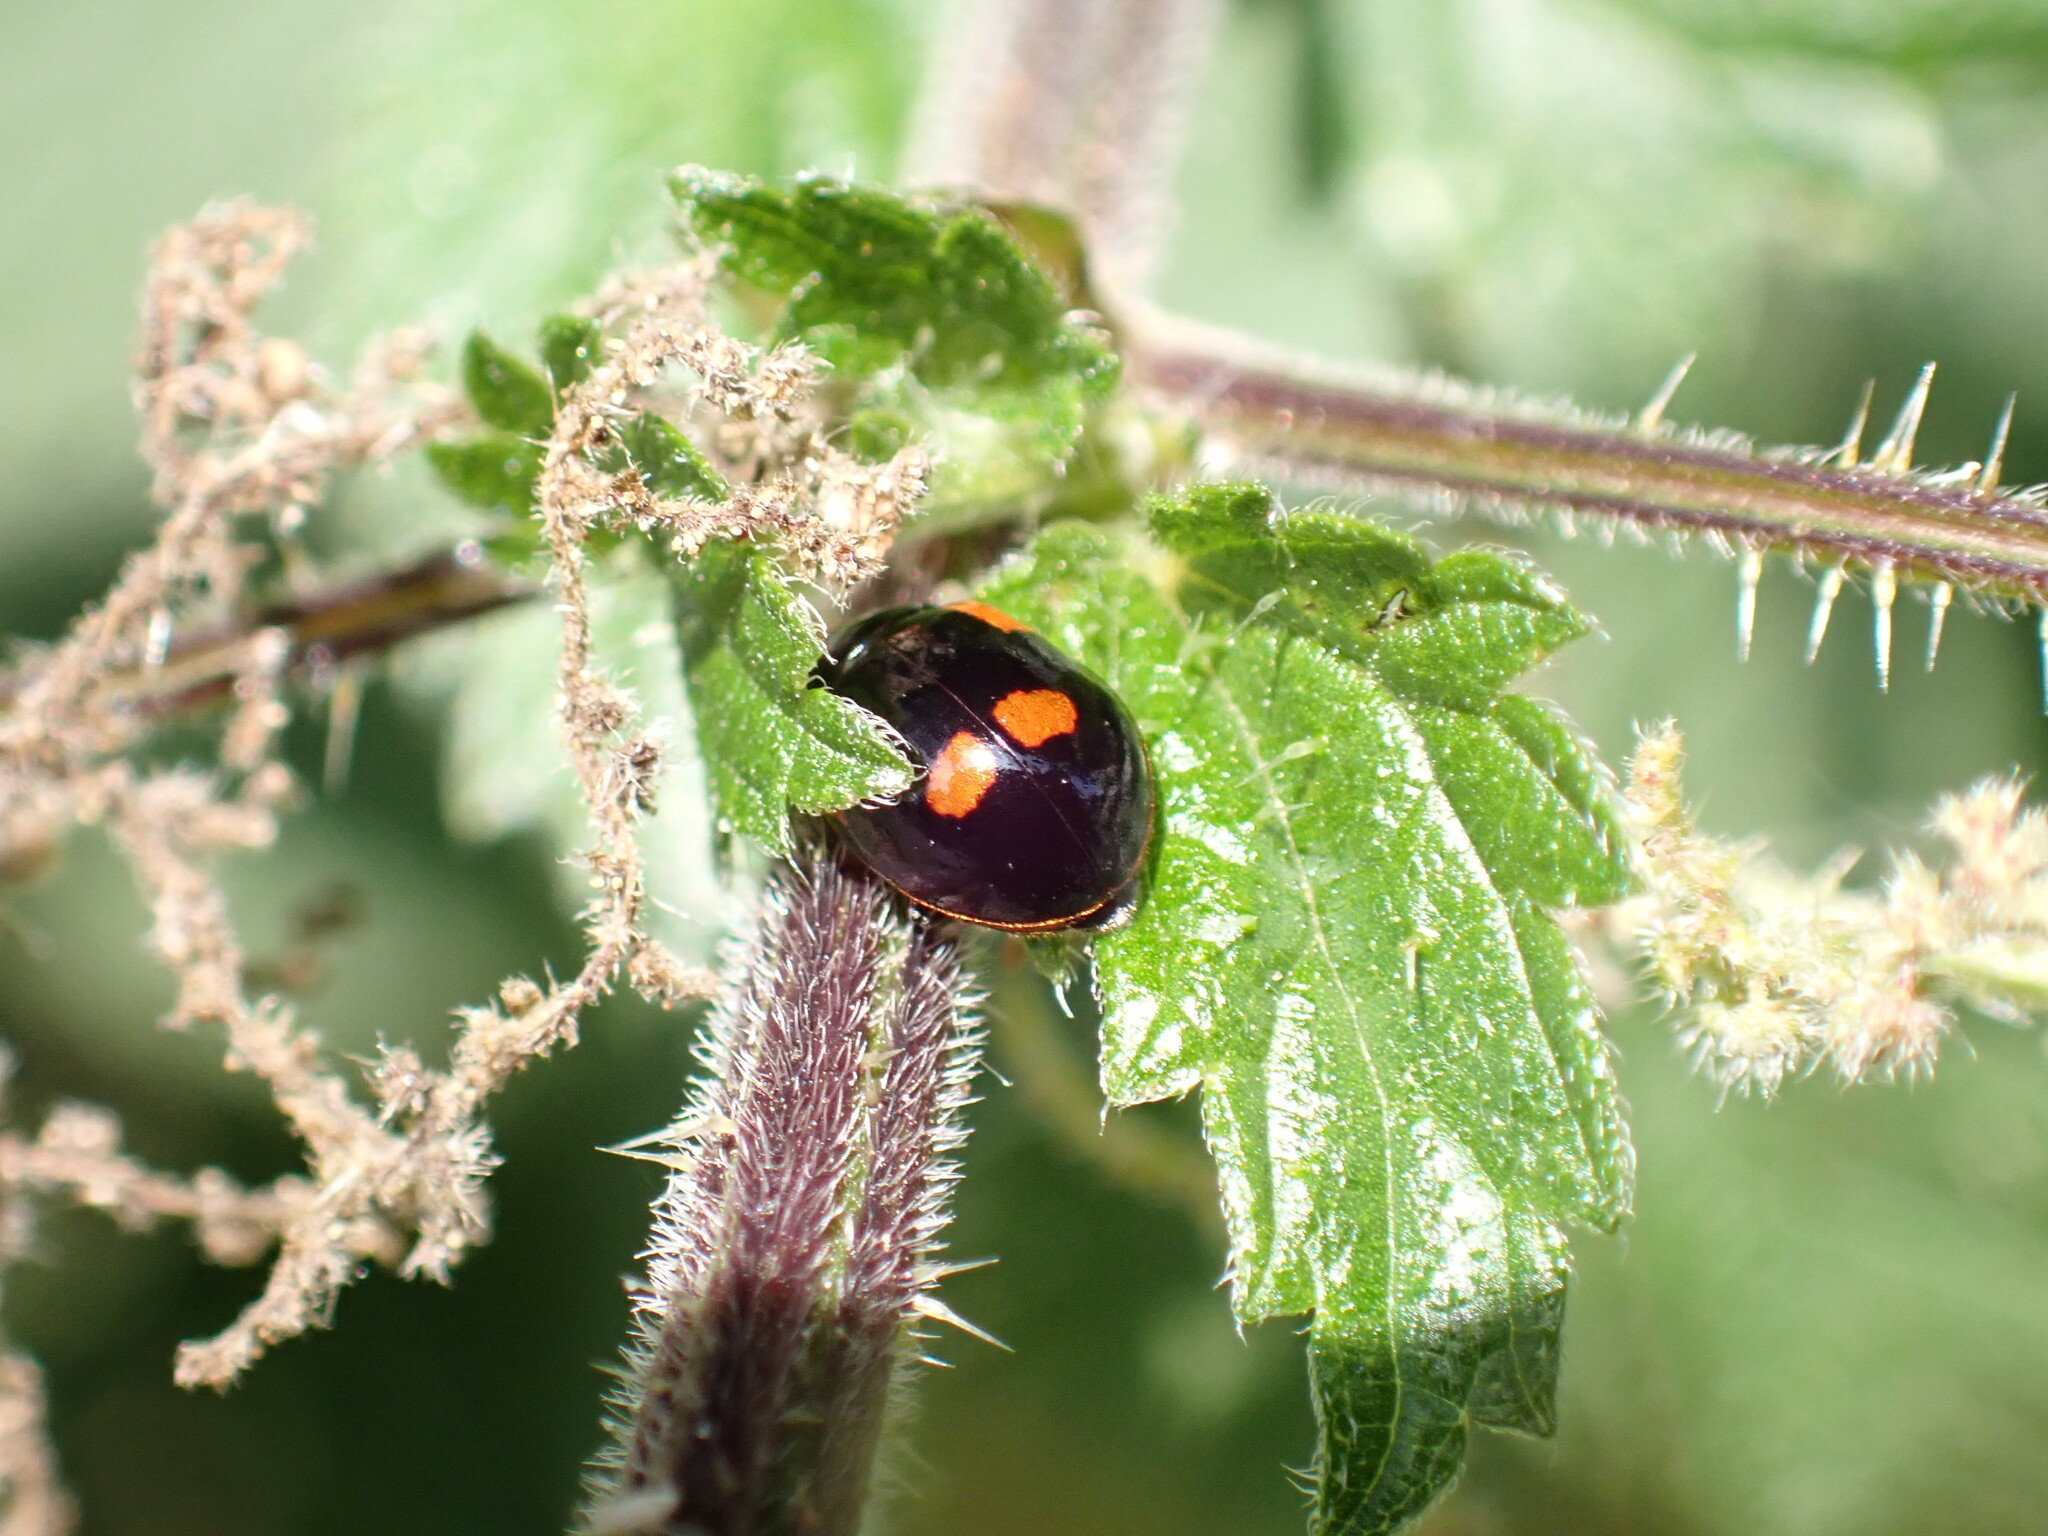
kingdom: Animalia
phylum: Arthropoda
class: Insecta
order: Coleoptera
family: Coccinellidae
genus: Adalia
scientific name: Adalia bipunctata
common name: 2-spot ladybird
